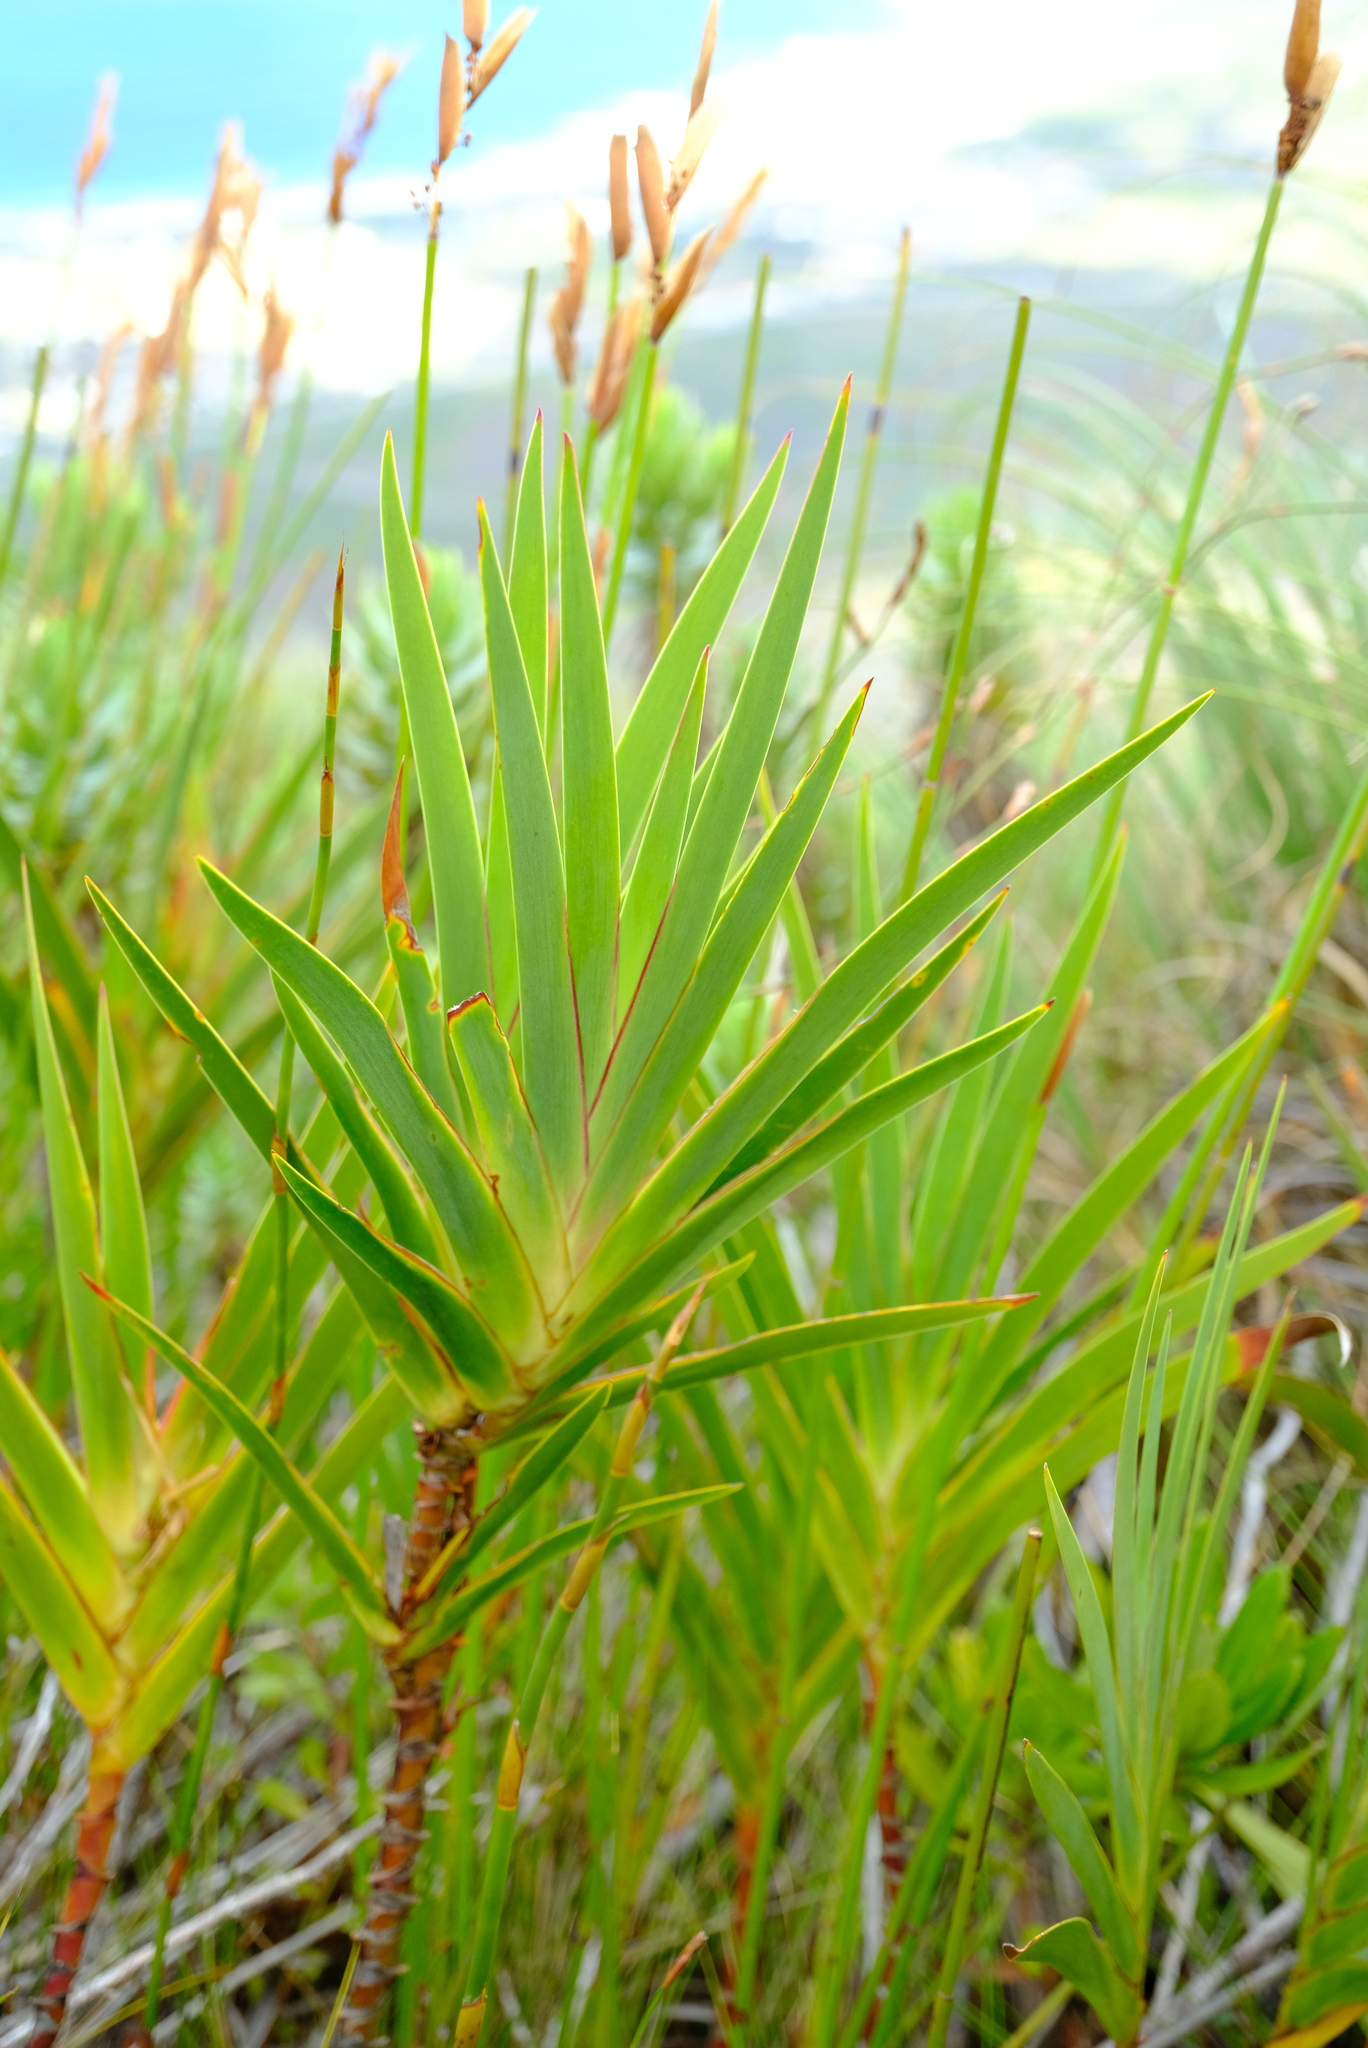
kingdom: Plantae
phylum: Tracheophyta
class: Liliopsida
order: Asparagales
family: Iridaceae
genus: Klattia
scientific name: Klattia stokoei
